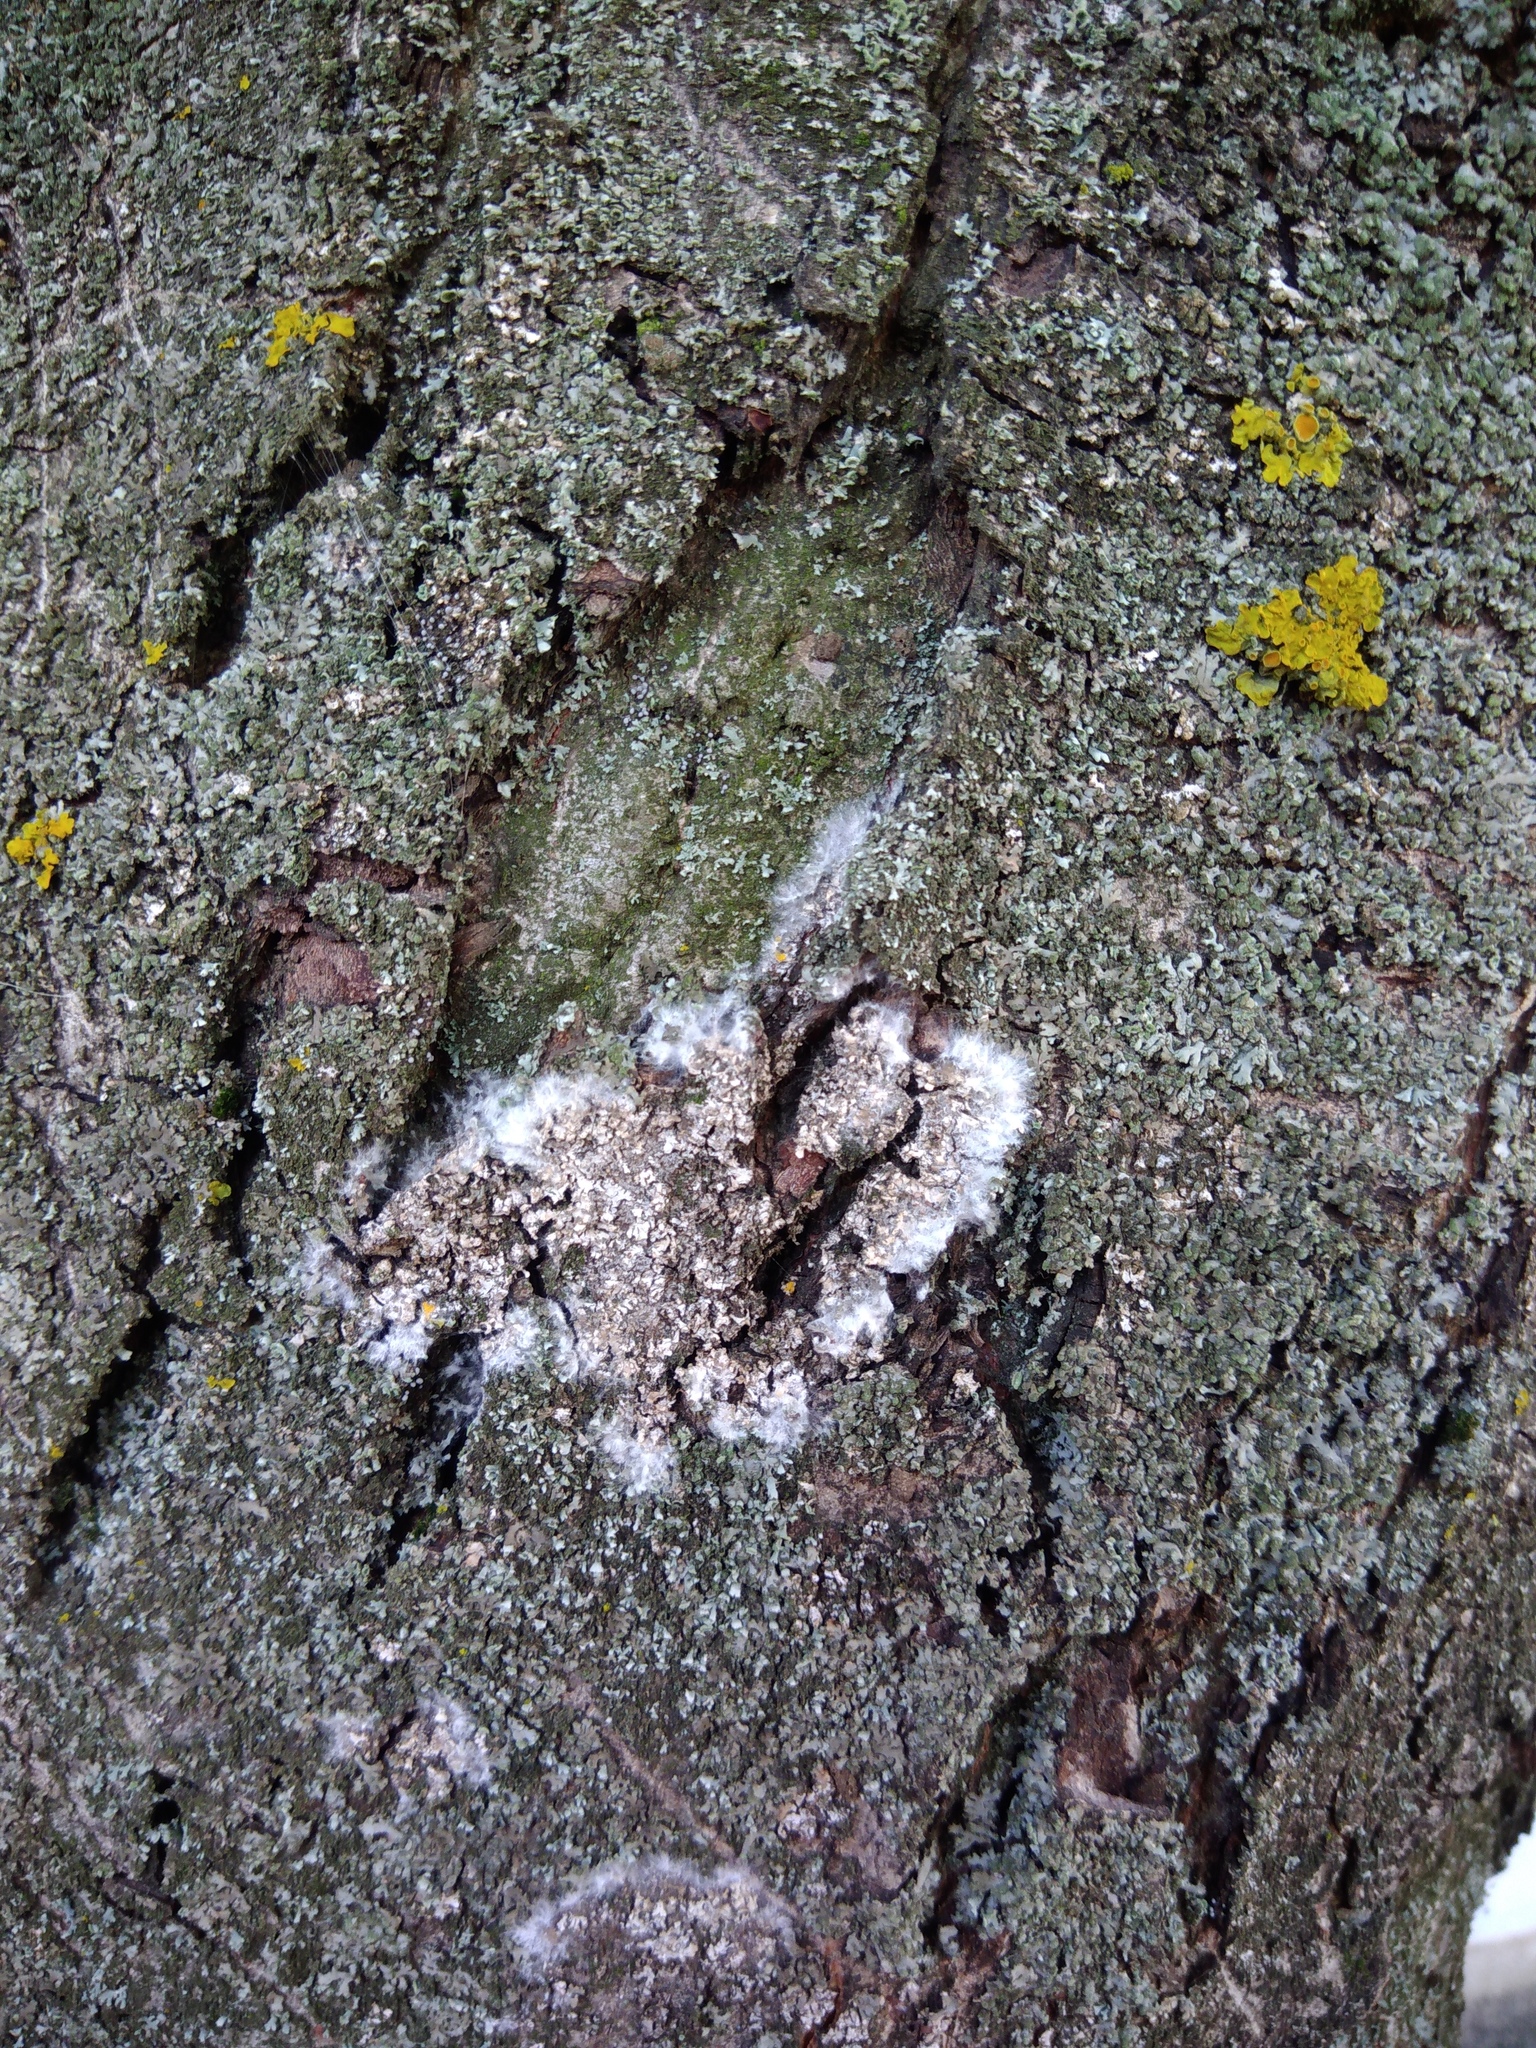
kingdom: Fungi
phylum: Basidiomycota
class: Agaricomycetes
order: Atheliales
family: Atheliaceae
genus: Athelia
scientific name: Athelia arachnoidea
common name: Candelabra duster
